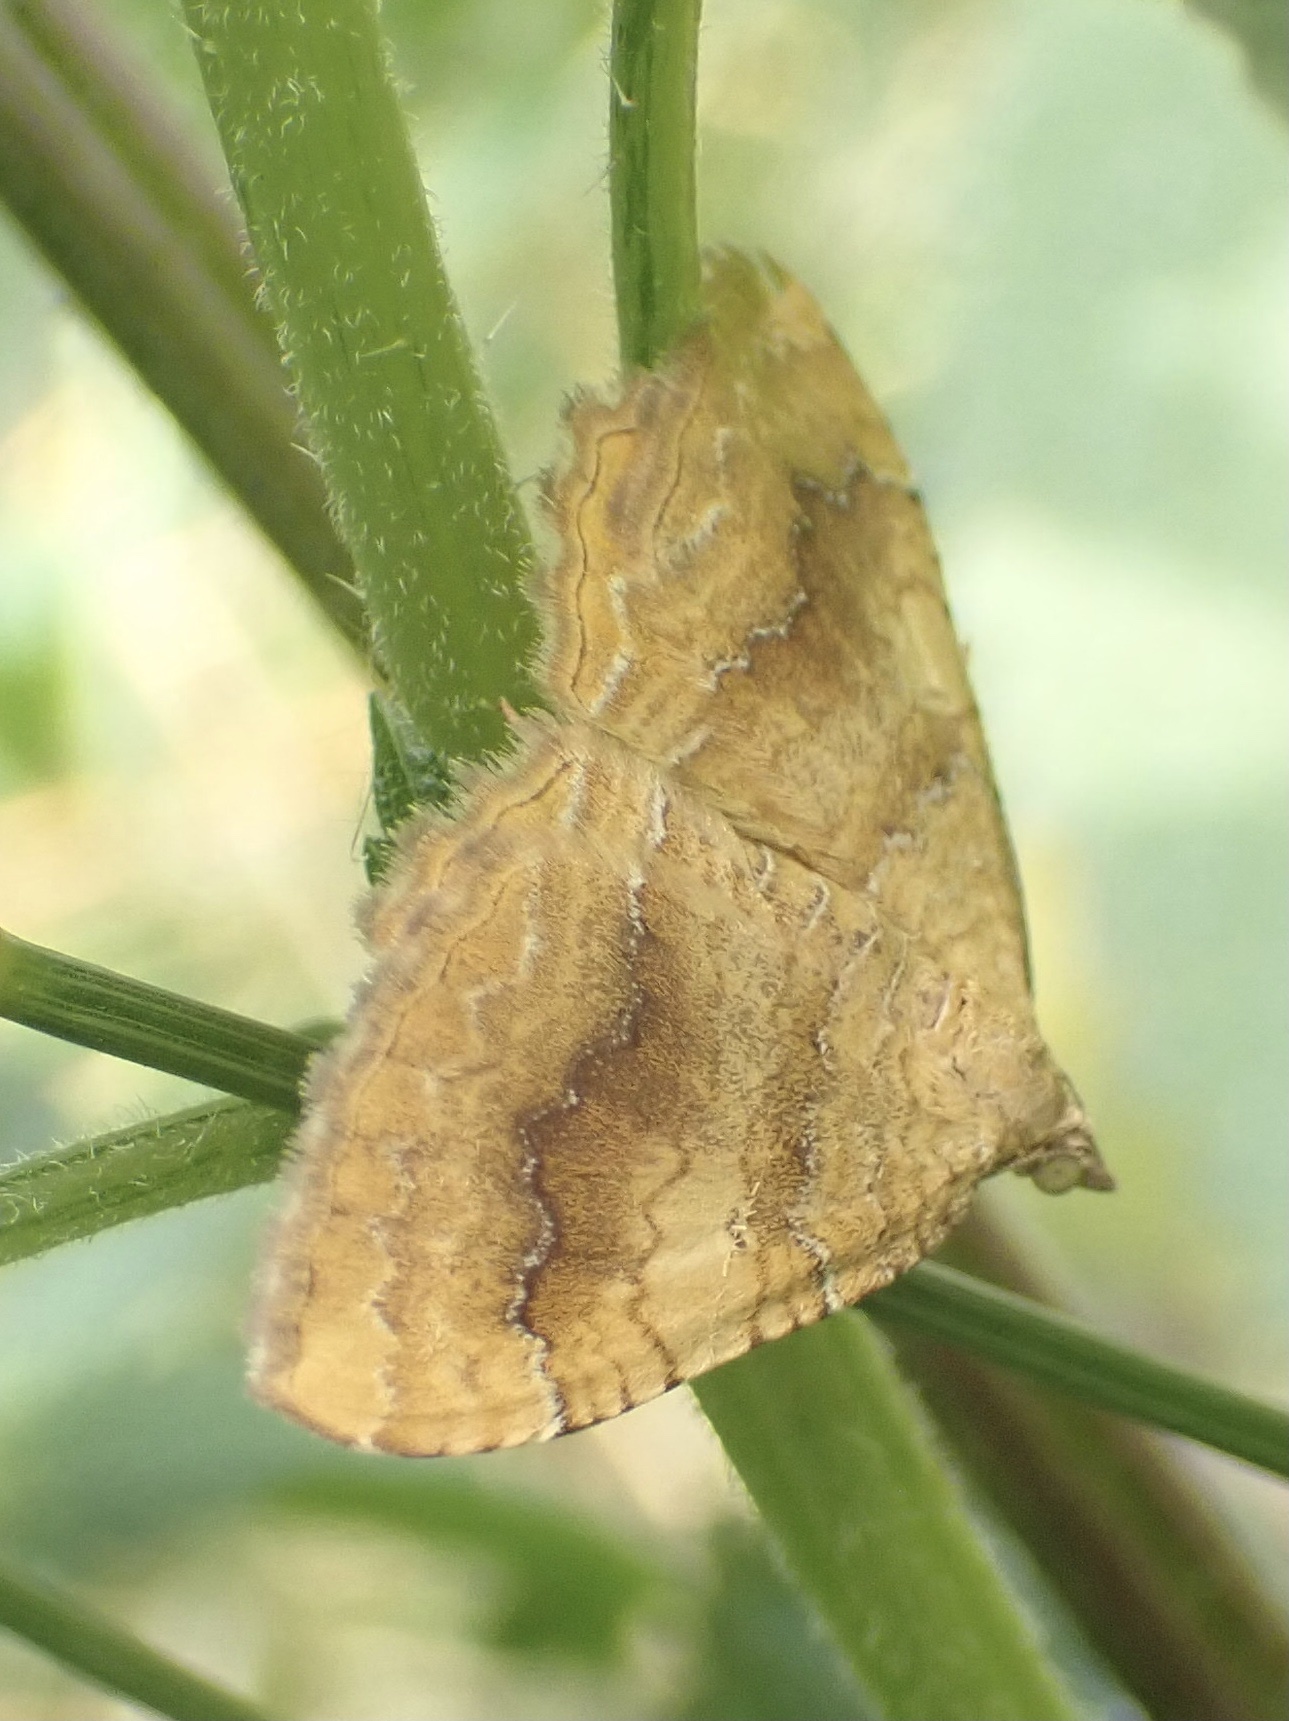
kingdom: Animalia
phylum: Arthropoda
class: Insecta
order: Lepidoptera
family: Geometridae
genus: Camptogramma
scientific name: Camptogramma bilineata
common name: Yellow shell
